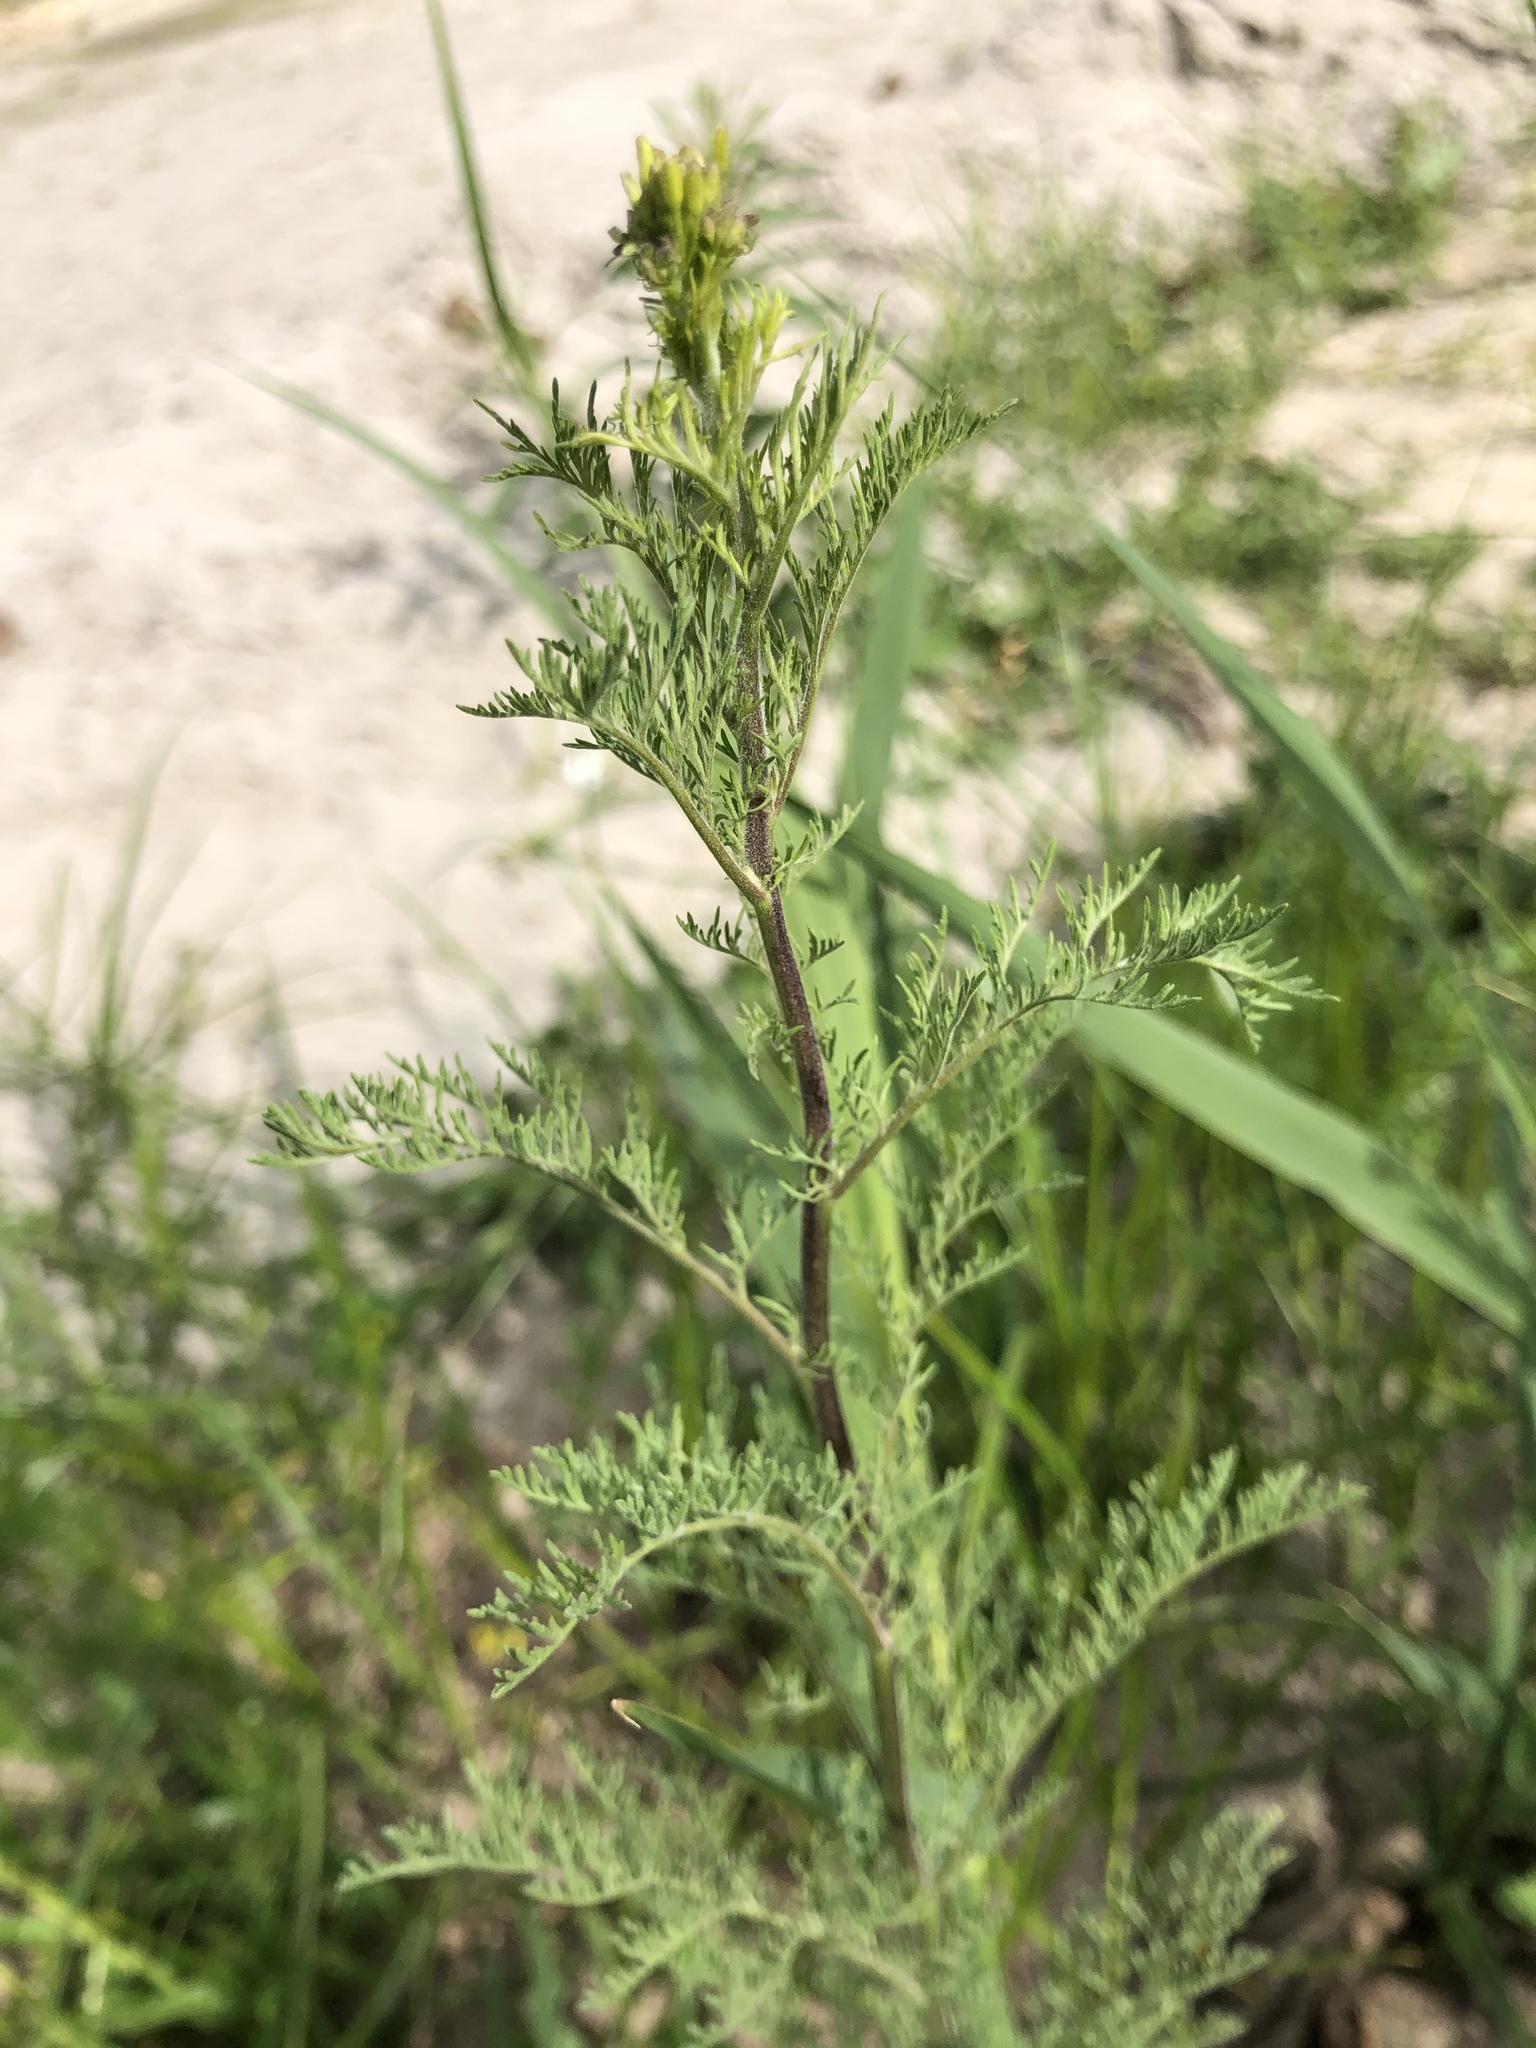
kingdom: Plantae
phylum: Tracheophyta
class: Magnoliopsida
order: Brassicales
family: Brassicaceae
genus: Descurainia
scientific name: Descurainia sophia
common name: Flixweed
